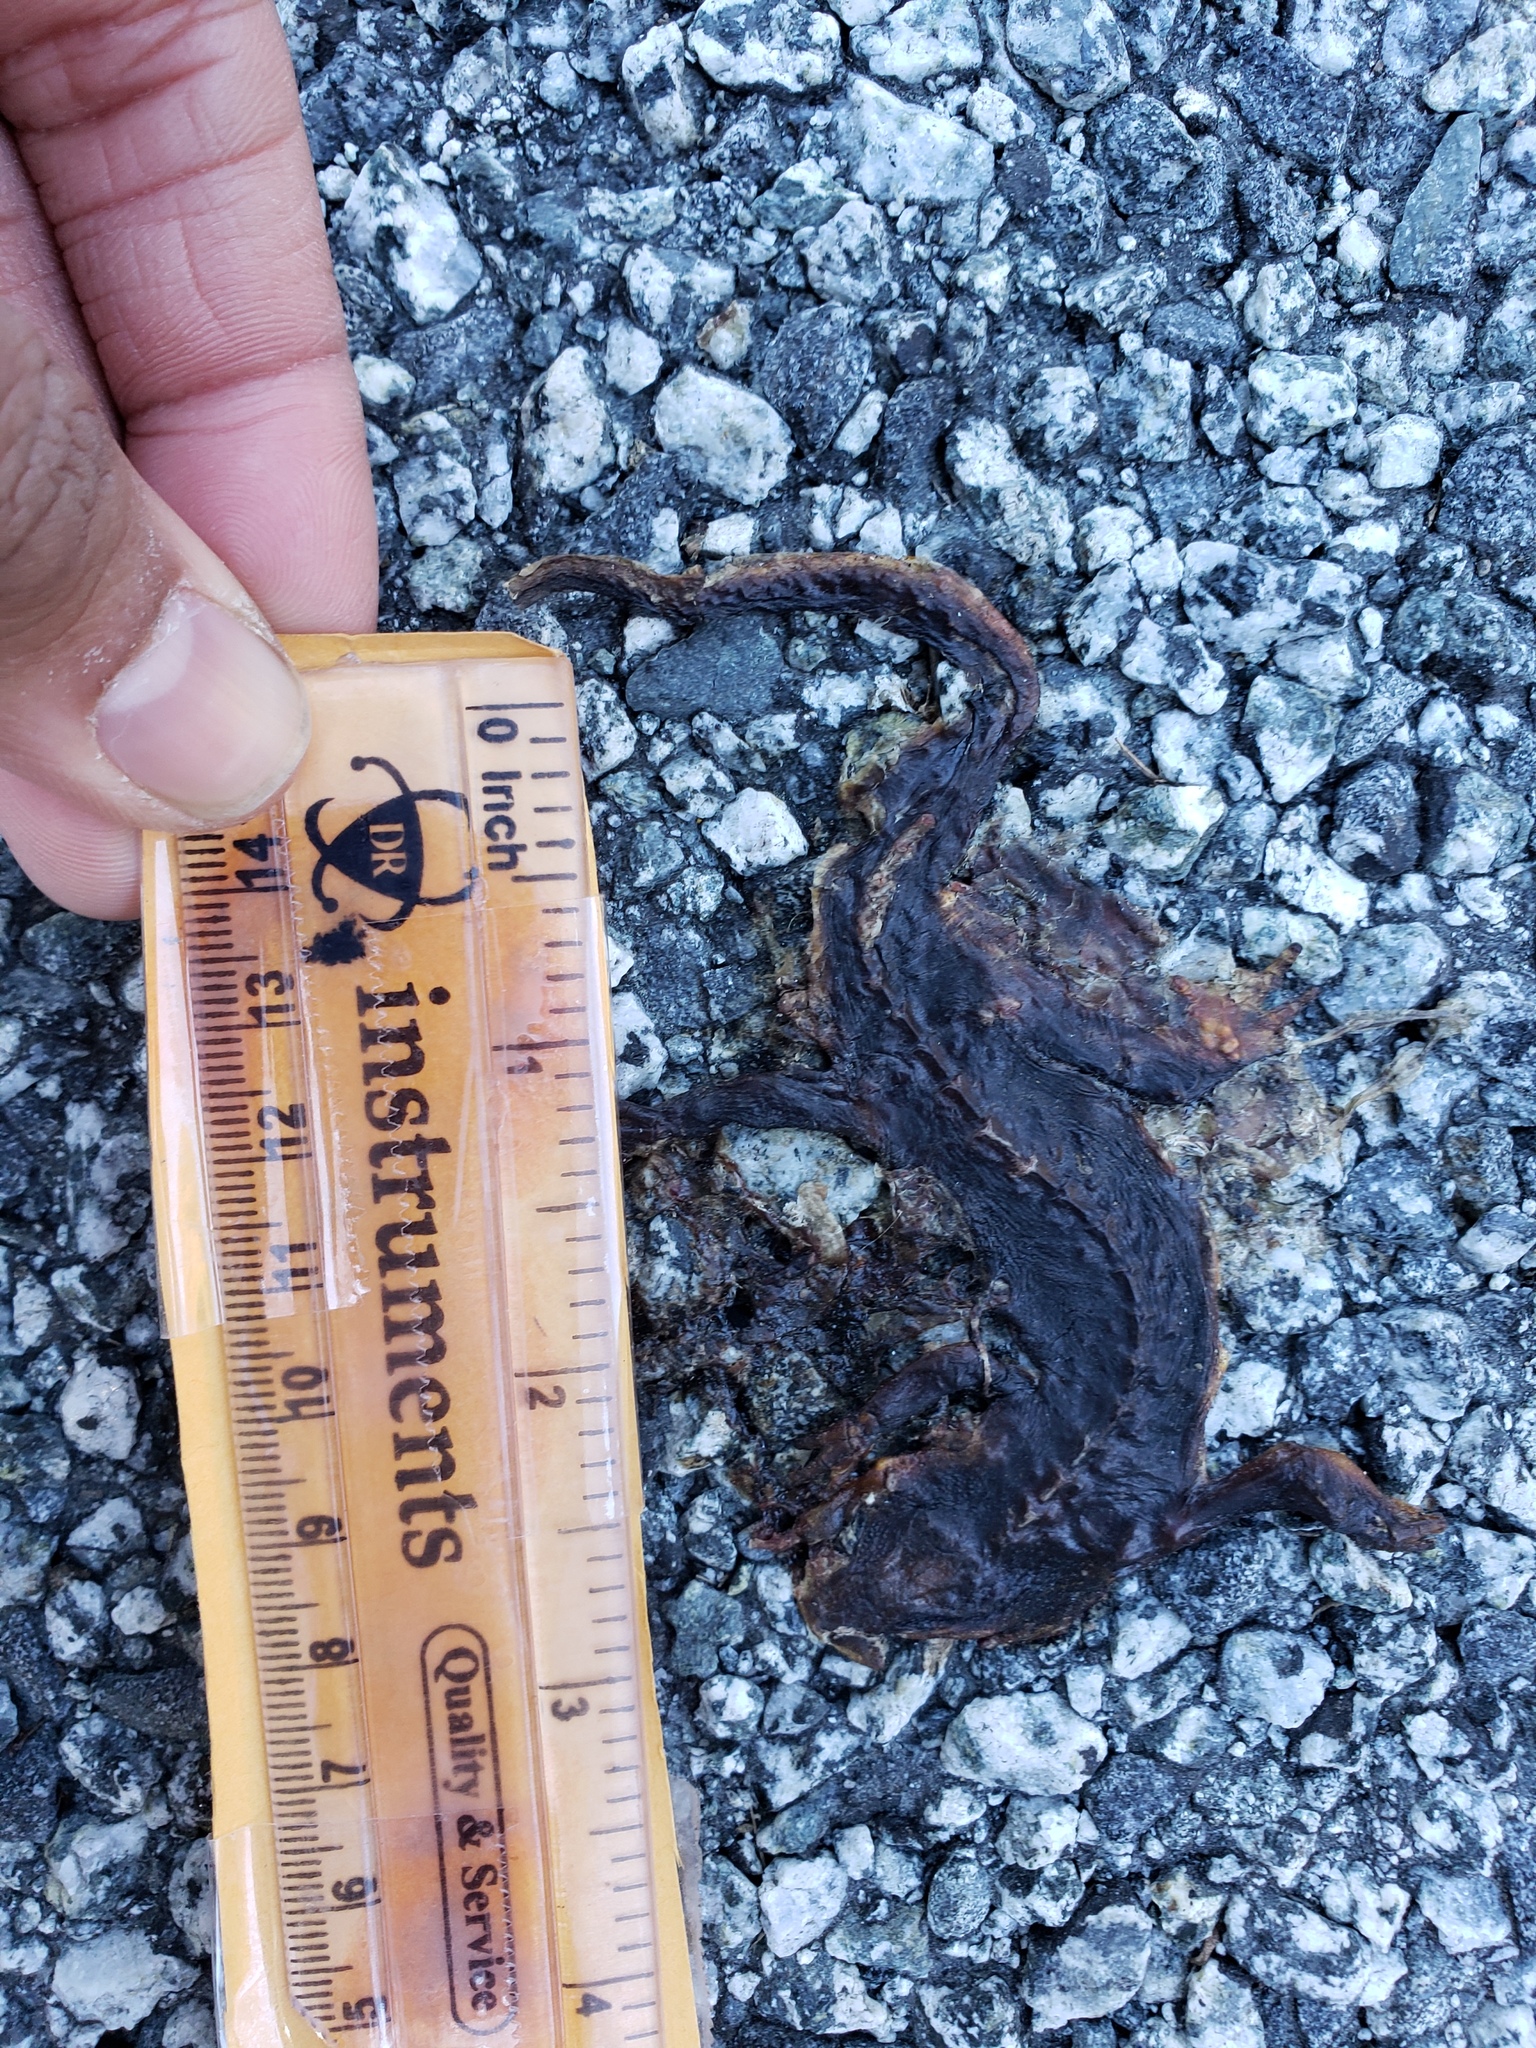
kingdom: Animalia
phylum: Chordata
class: Amphibia
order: Caudata
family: Salamandridae
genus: Taricha
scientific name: Taricha
